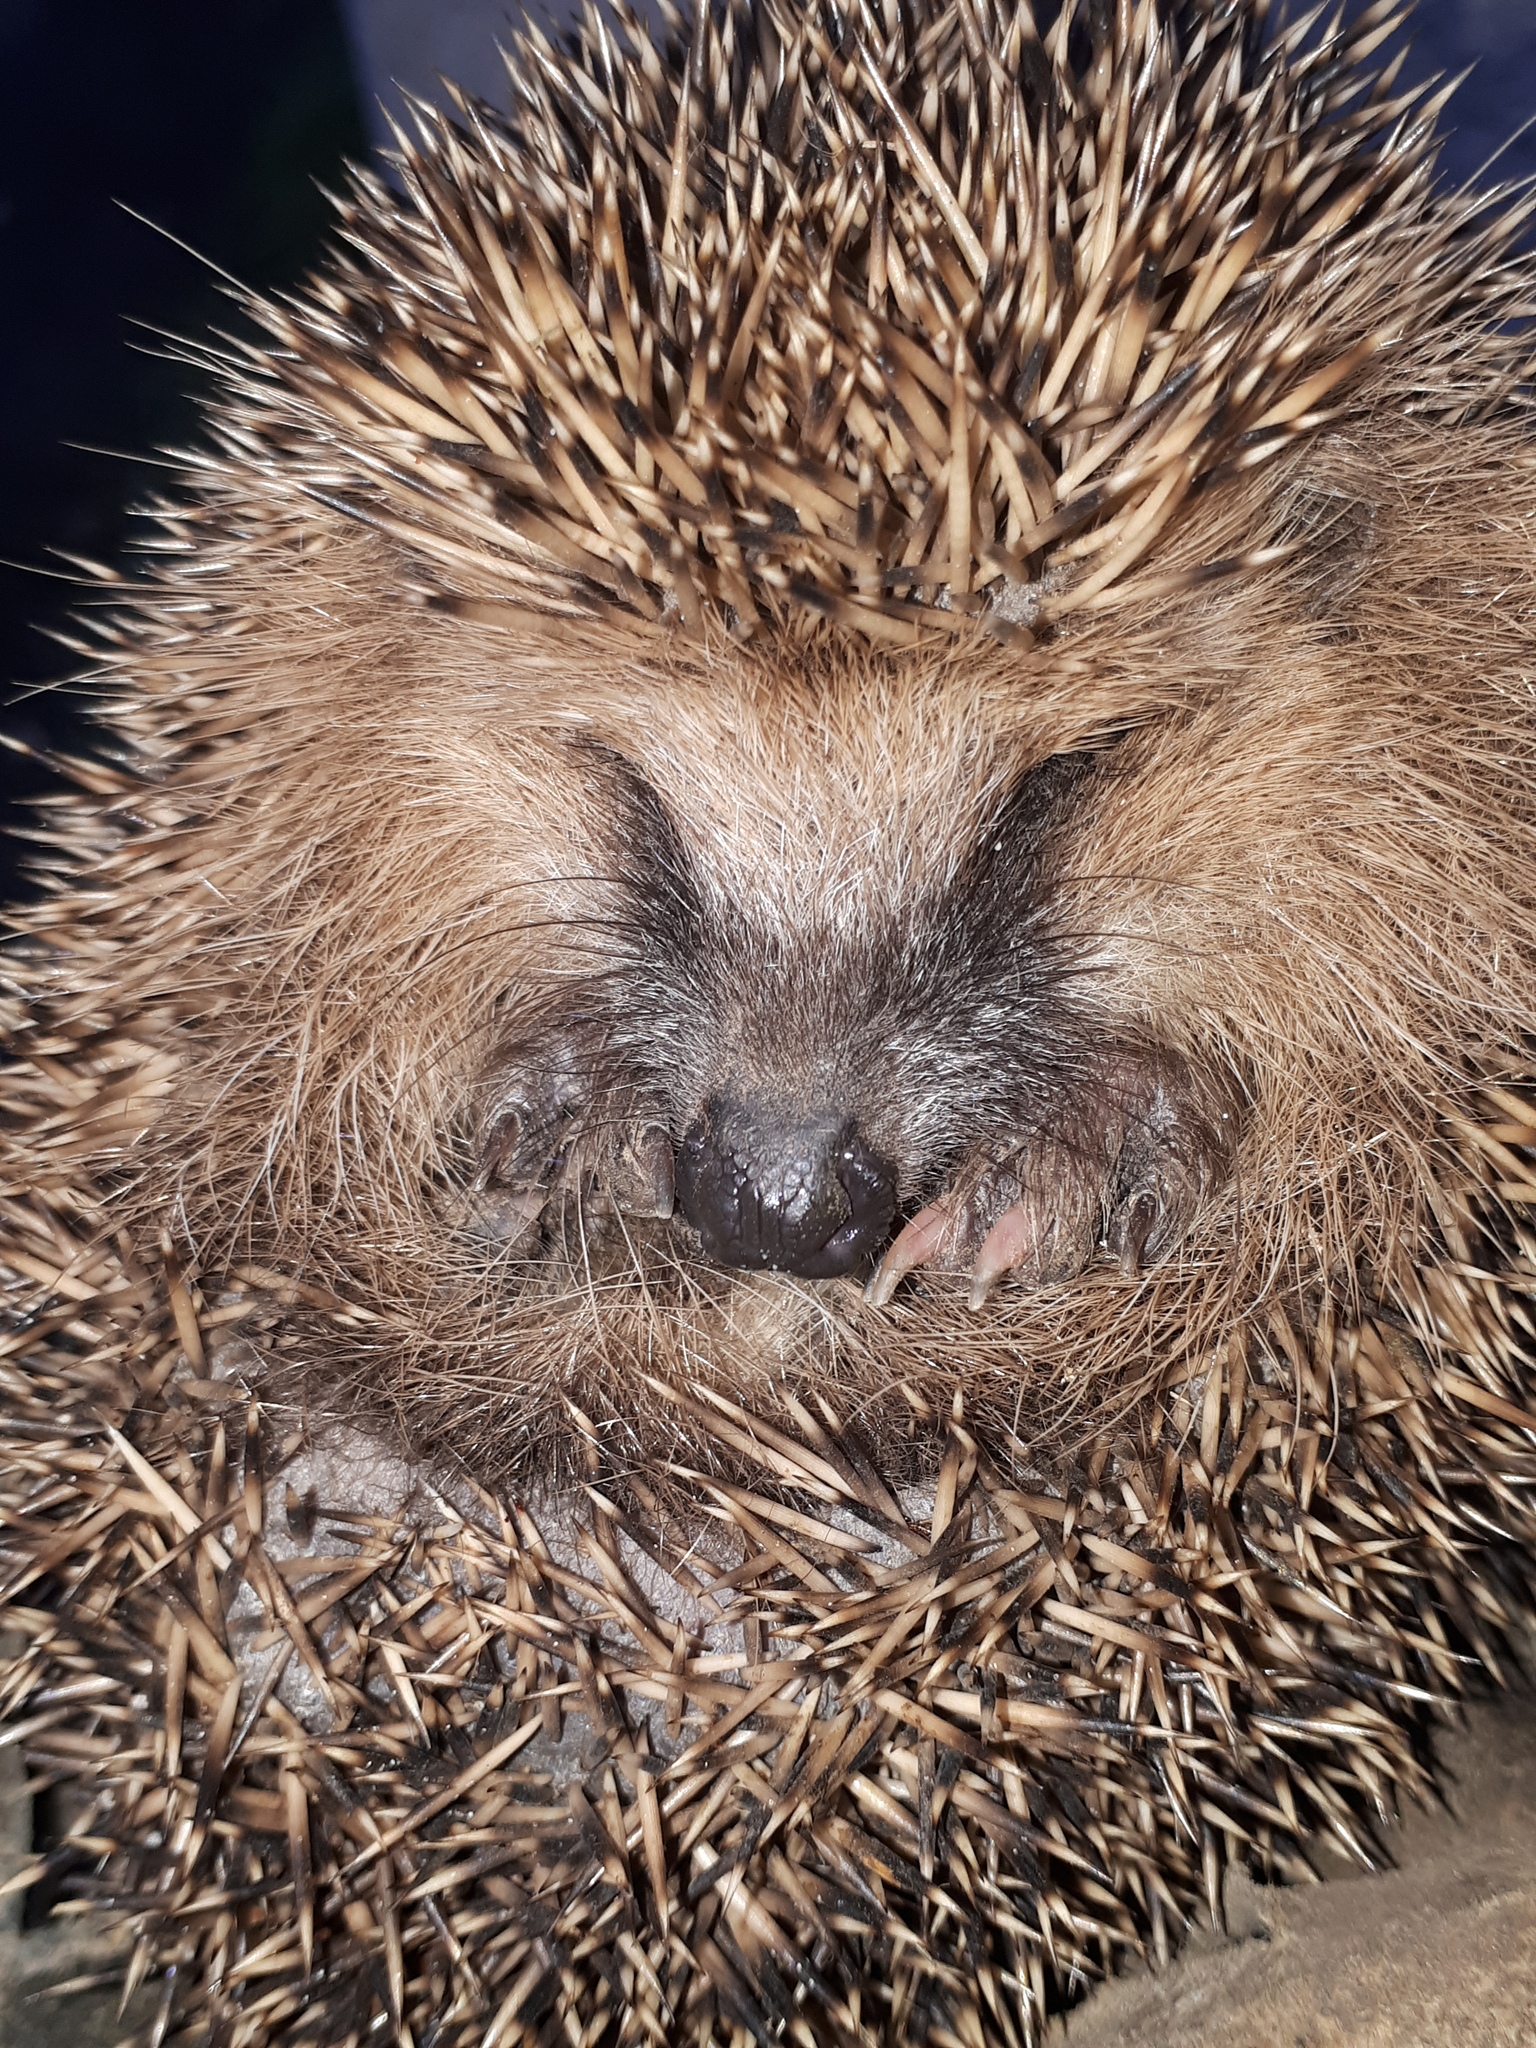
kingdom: Animalia
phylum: Chordata
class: Mammalia
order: Erinaceomorpha
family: Erinaceidae
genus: Erinaceus
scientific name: Erinaceus europaeus
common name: West european hedgehog
